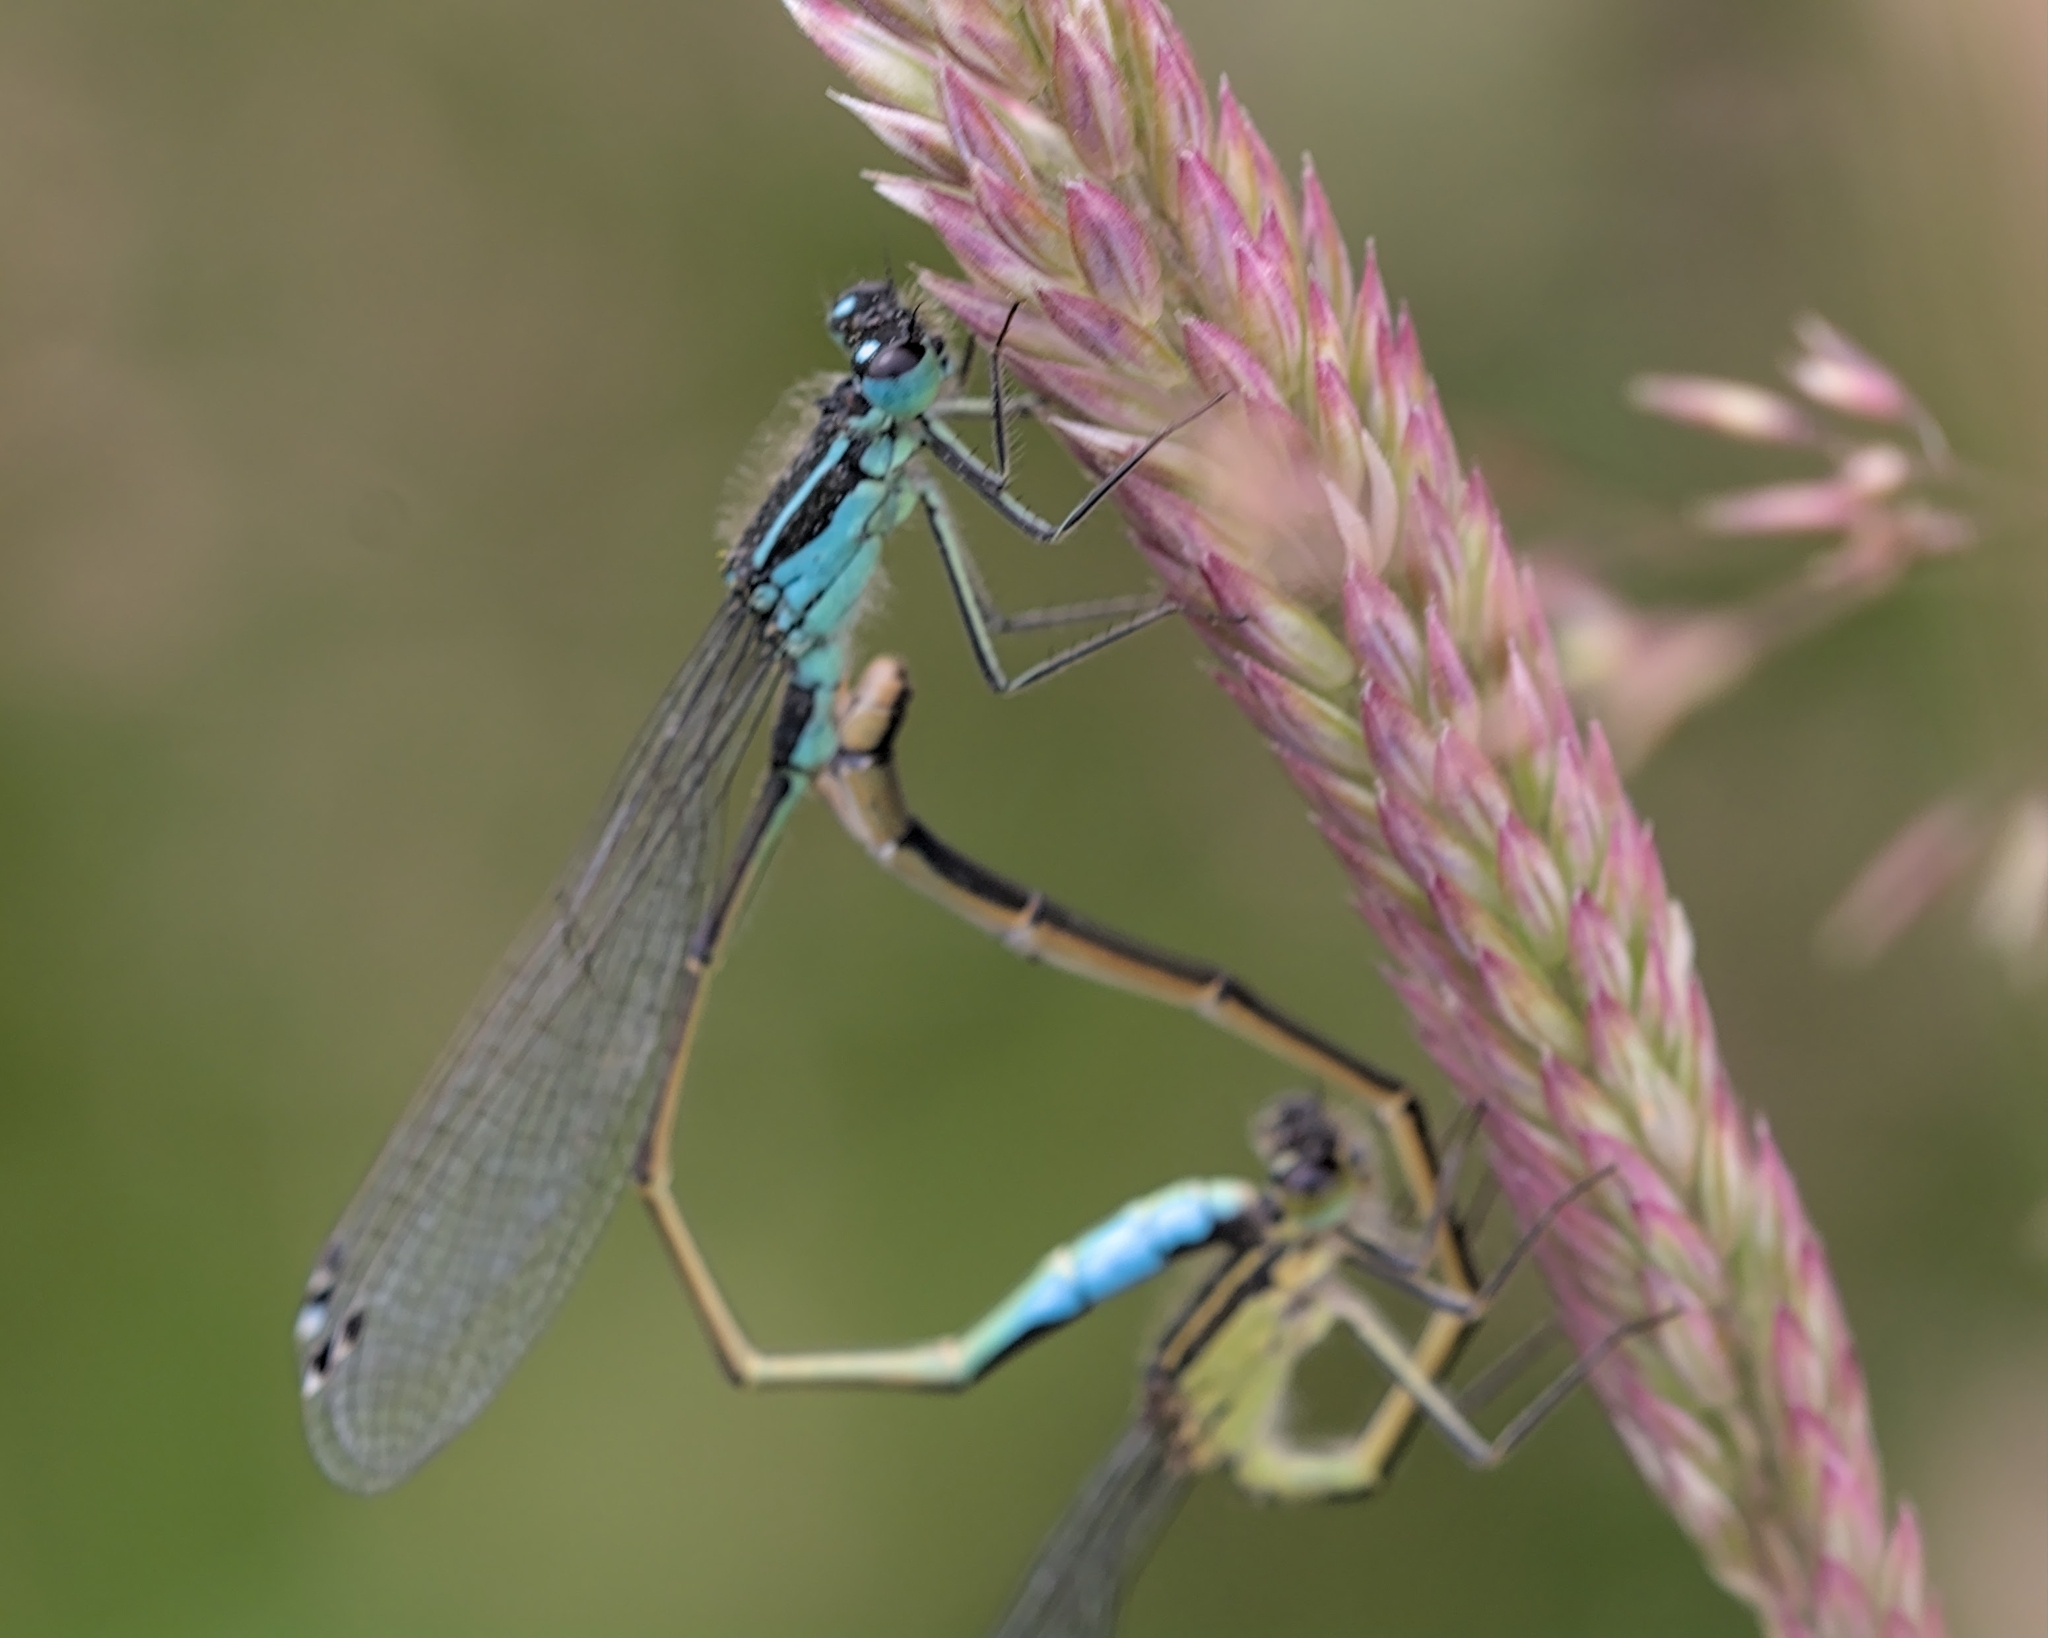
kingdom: Animalia
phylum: Arthropoda
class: Insecta
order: Odonata
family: Coenagrionidae
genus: Ischnura
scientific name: Ischnura elegans
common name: Blue-tailed damselfly
